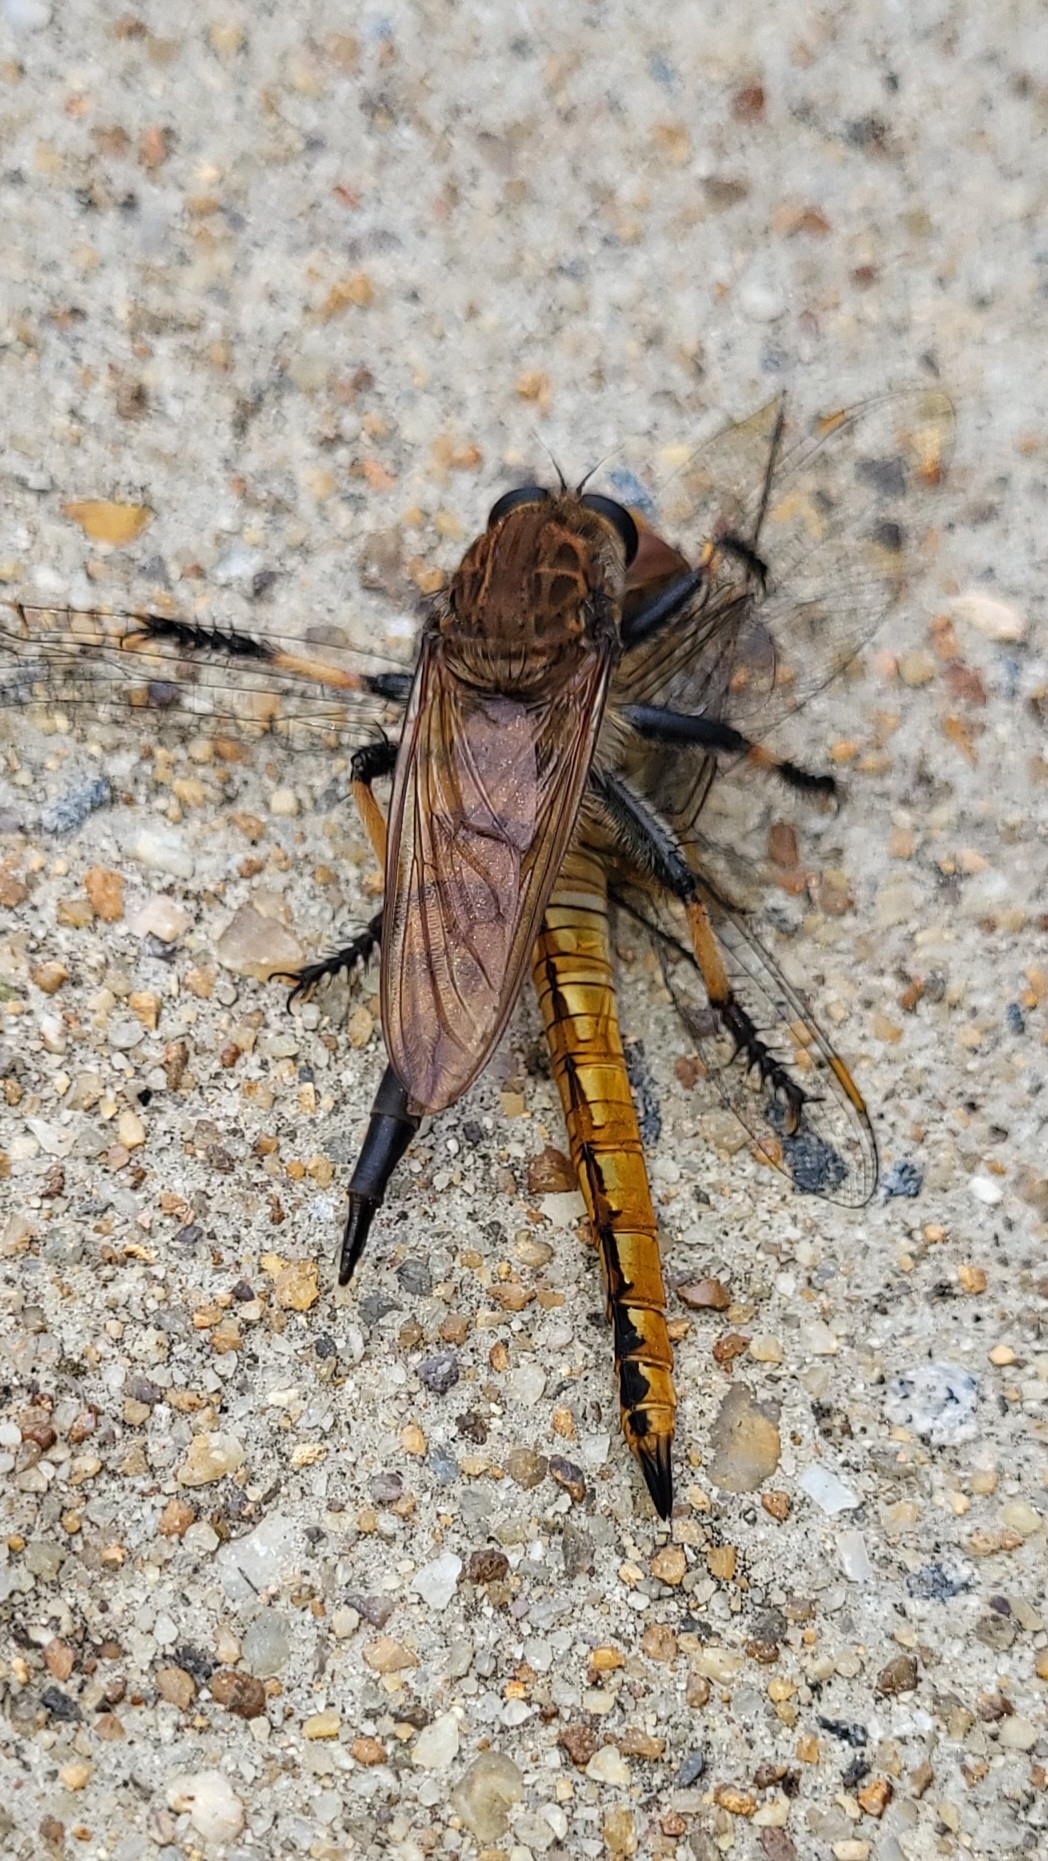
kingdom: Animalia
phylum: Arthropoda
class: Insecta
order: Odonata
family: Libellulidae
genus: Pantala
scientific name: Pantala flavescens
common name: Wandering glider
